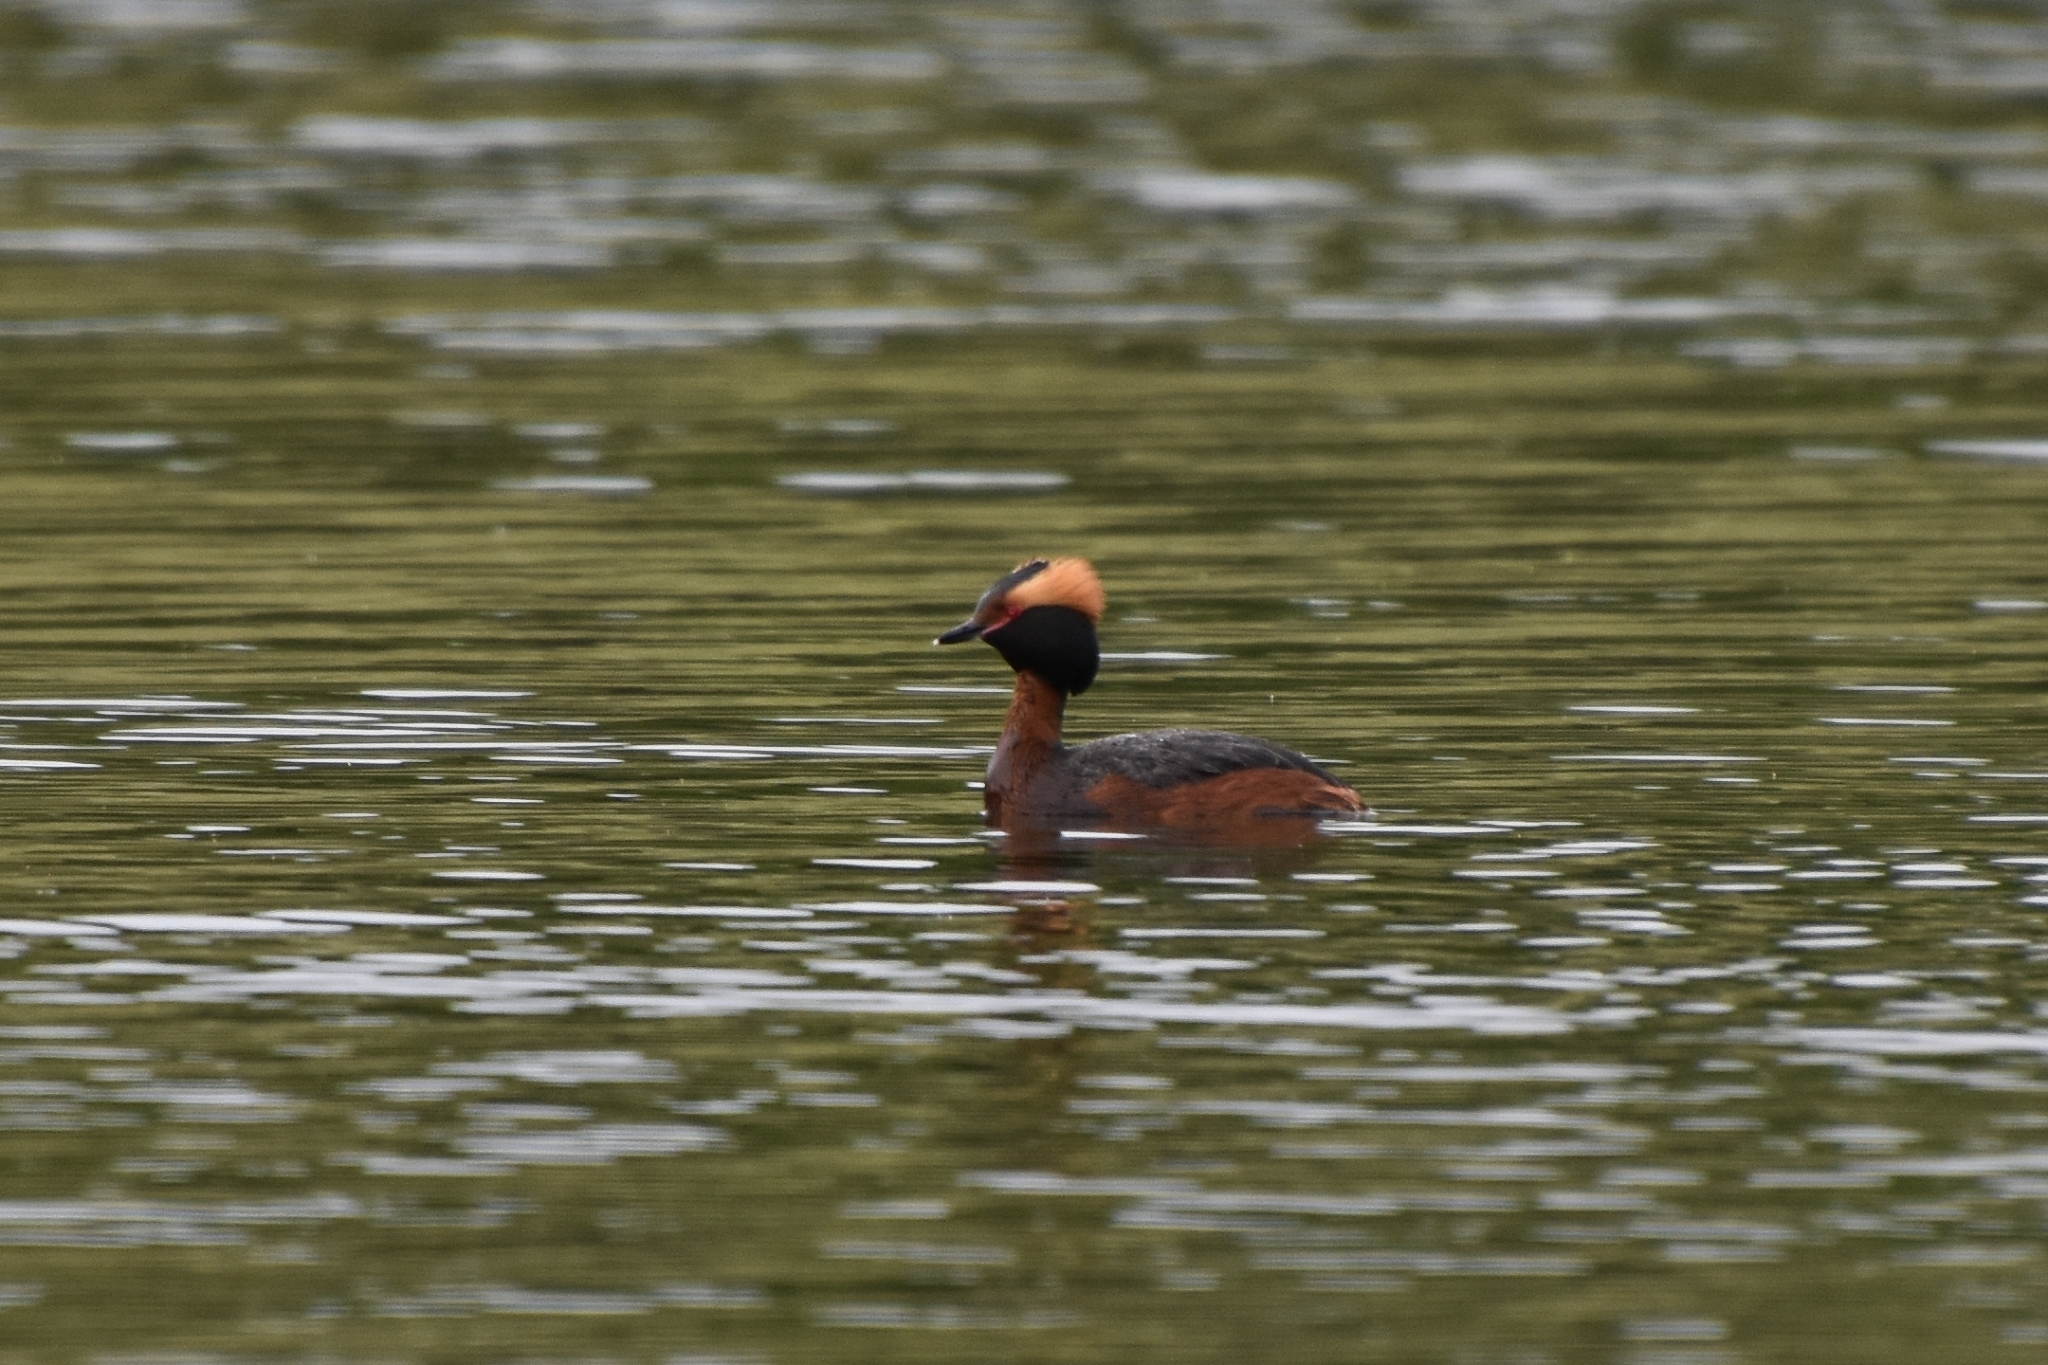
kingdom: Animalia
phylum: Chordata
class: Aves
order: Podicipediformes
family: Podicipedidae
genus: Podiceps
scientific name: Podiceps auritus
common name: Horned grebe
